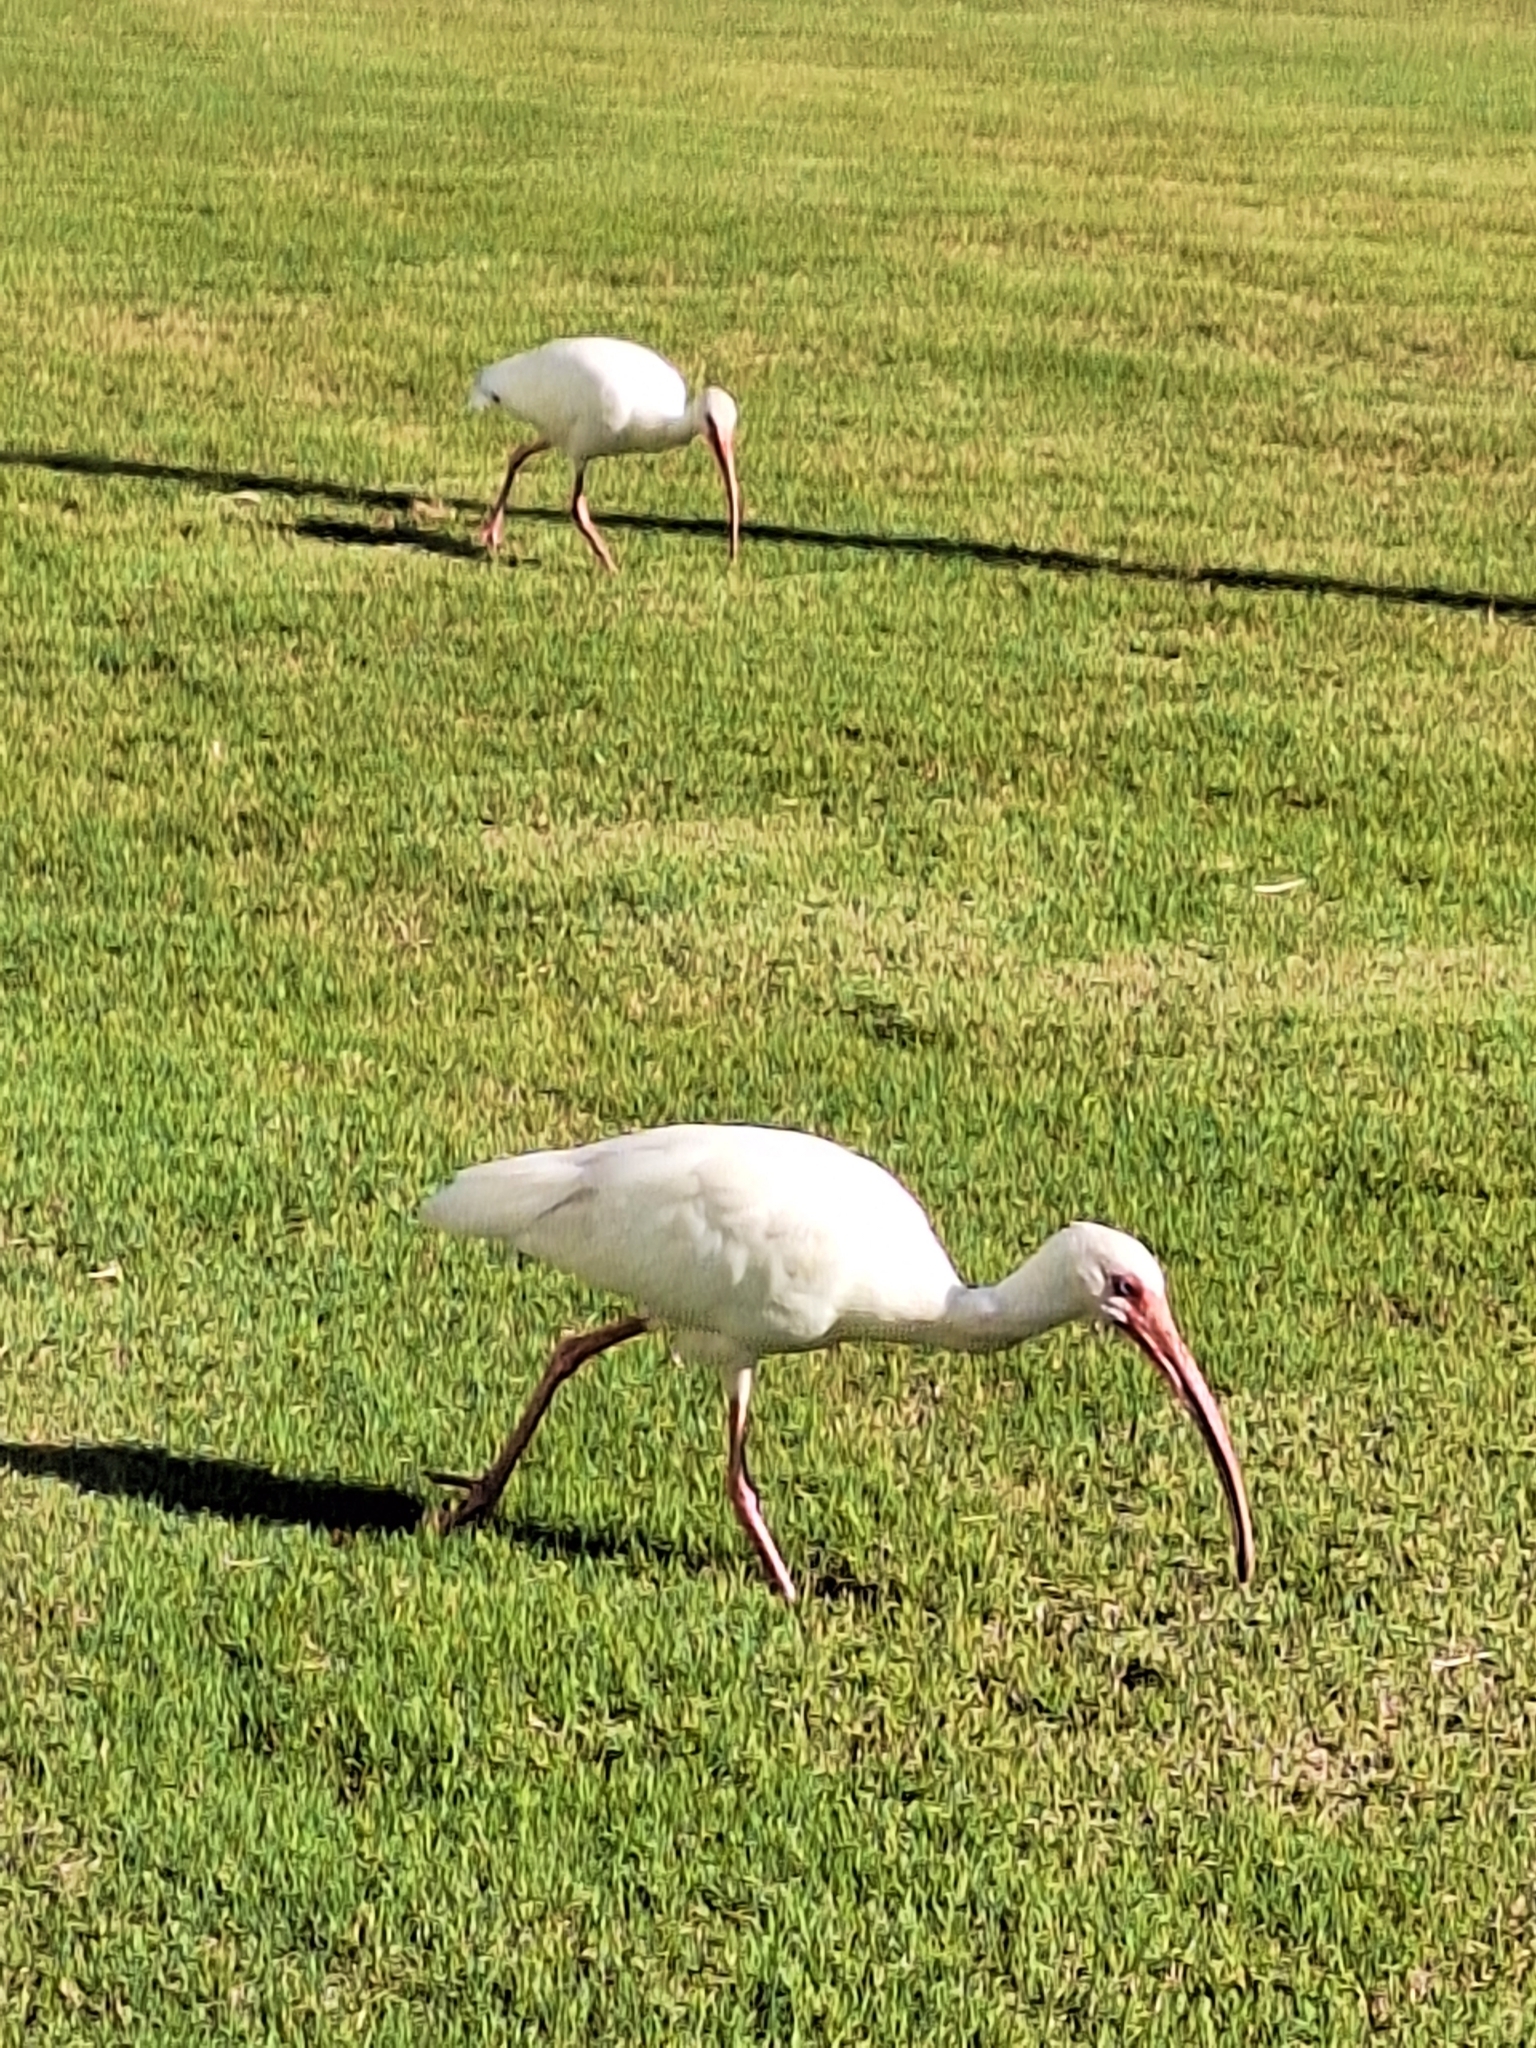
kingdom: Animalia
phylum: Chordata
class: Aves
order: Pelecaniformes
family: Threskiornithidae
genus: Eudocimus
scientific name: Eudocimus albus
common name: White ibis
